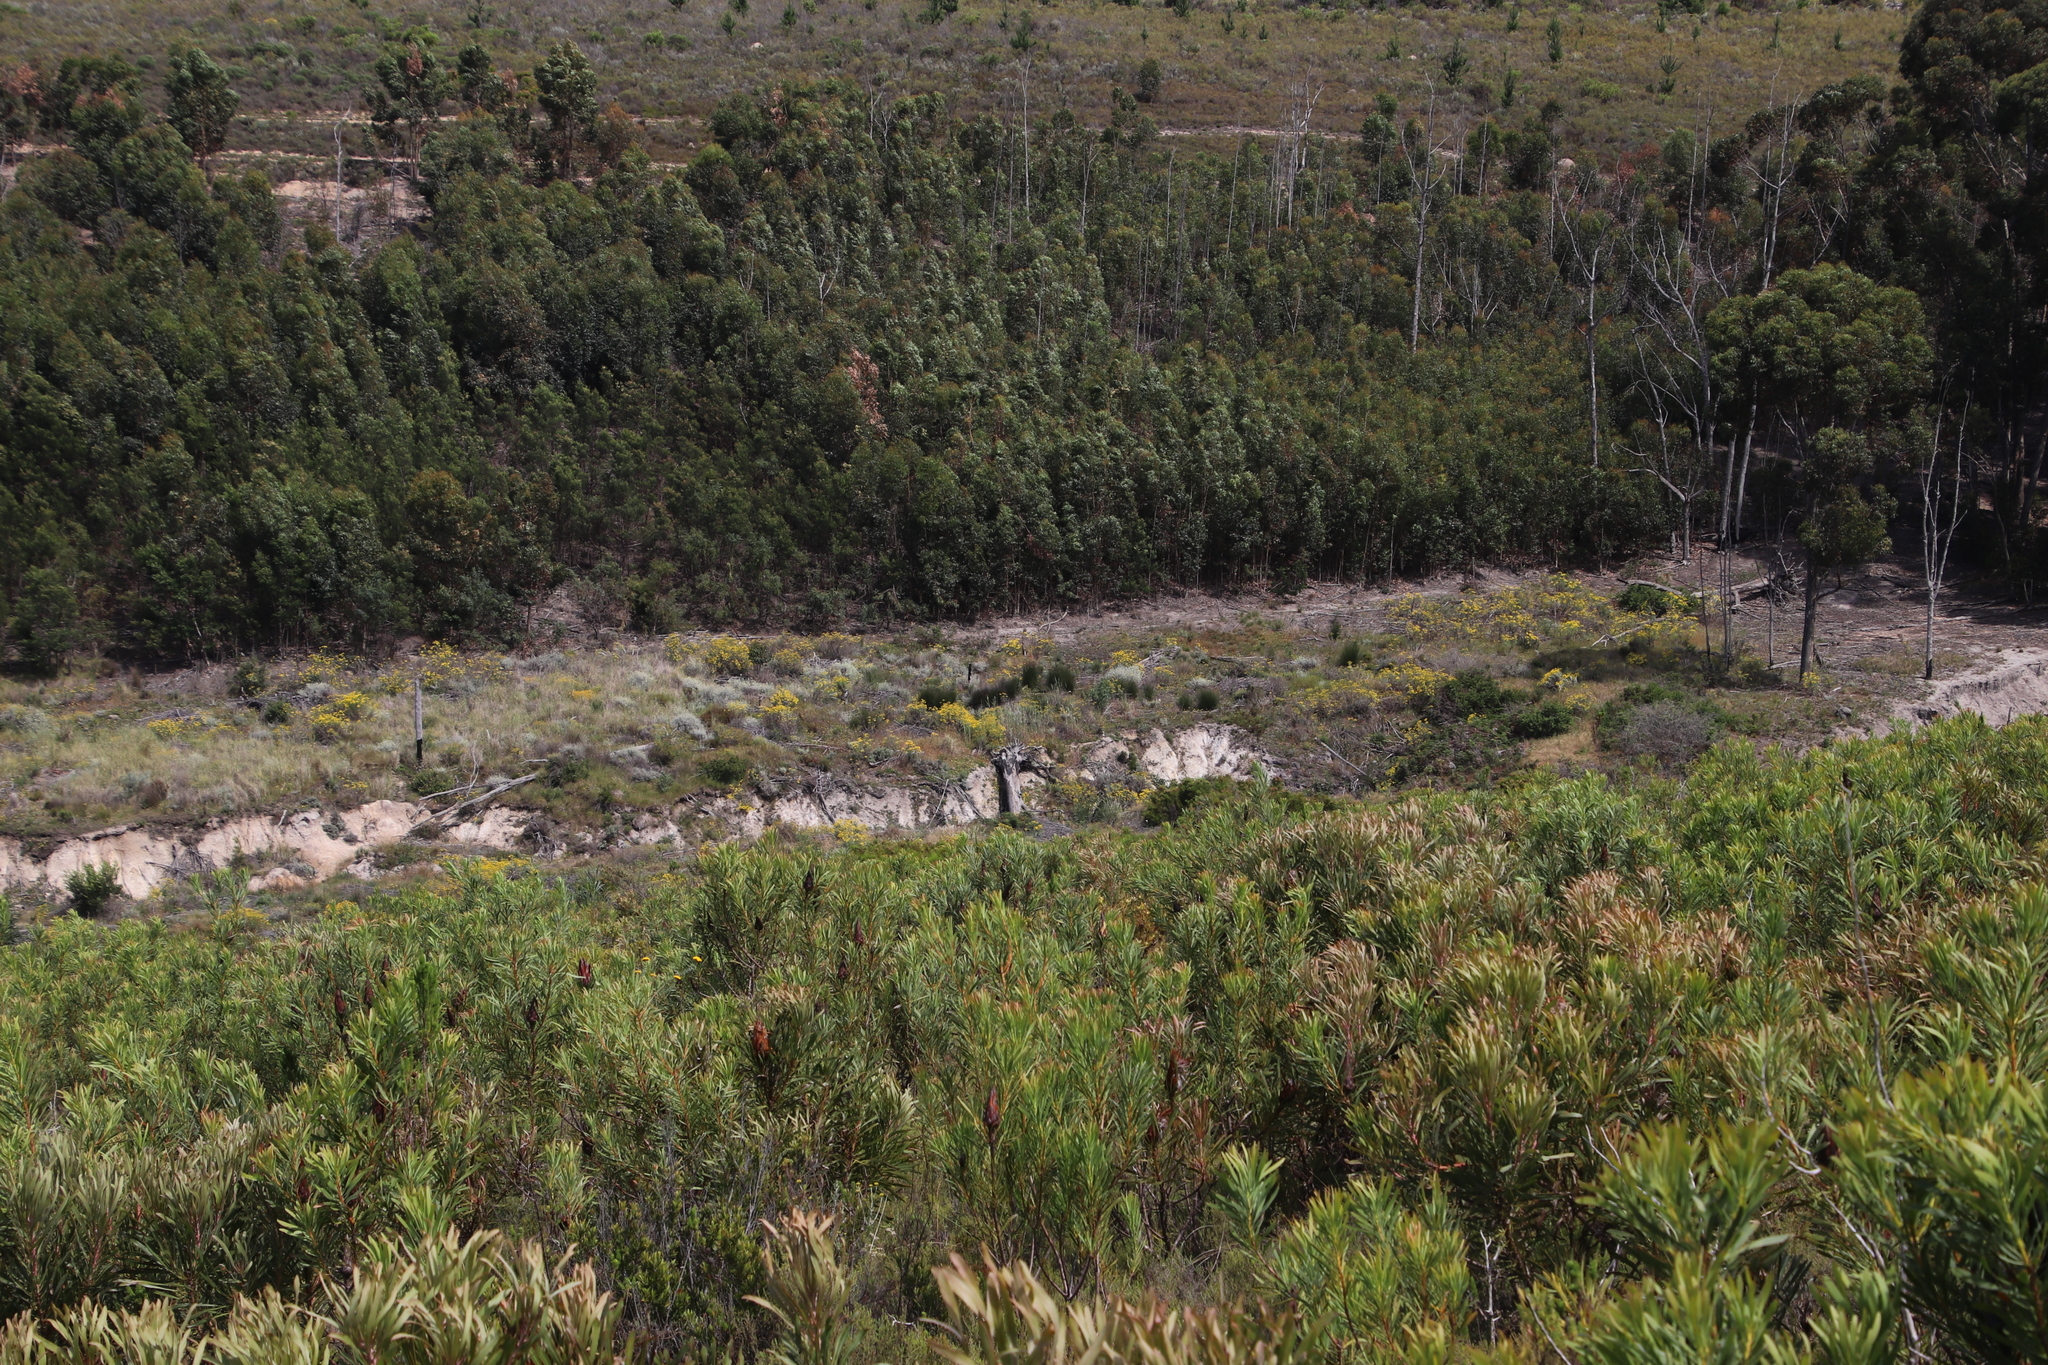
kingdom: Plantae
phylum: Tracheophyta
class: Magnoliopsida
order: Asterales
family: Asteraceae
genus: Senecio
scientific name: Senecio pterophorus
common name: Shoddy ragwort
